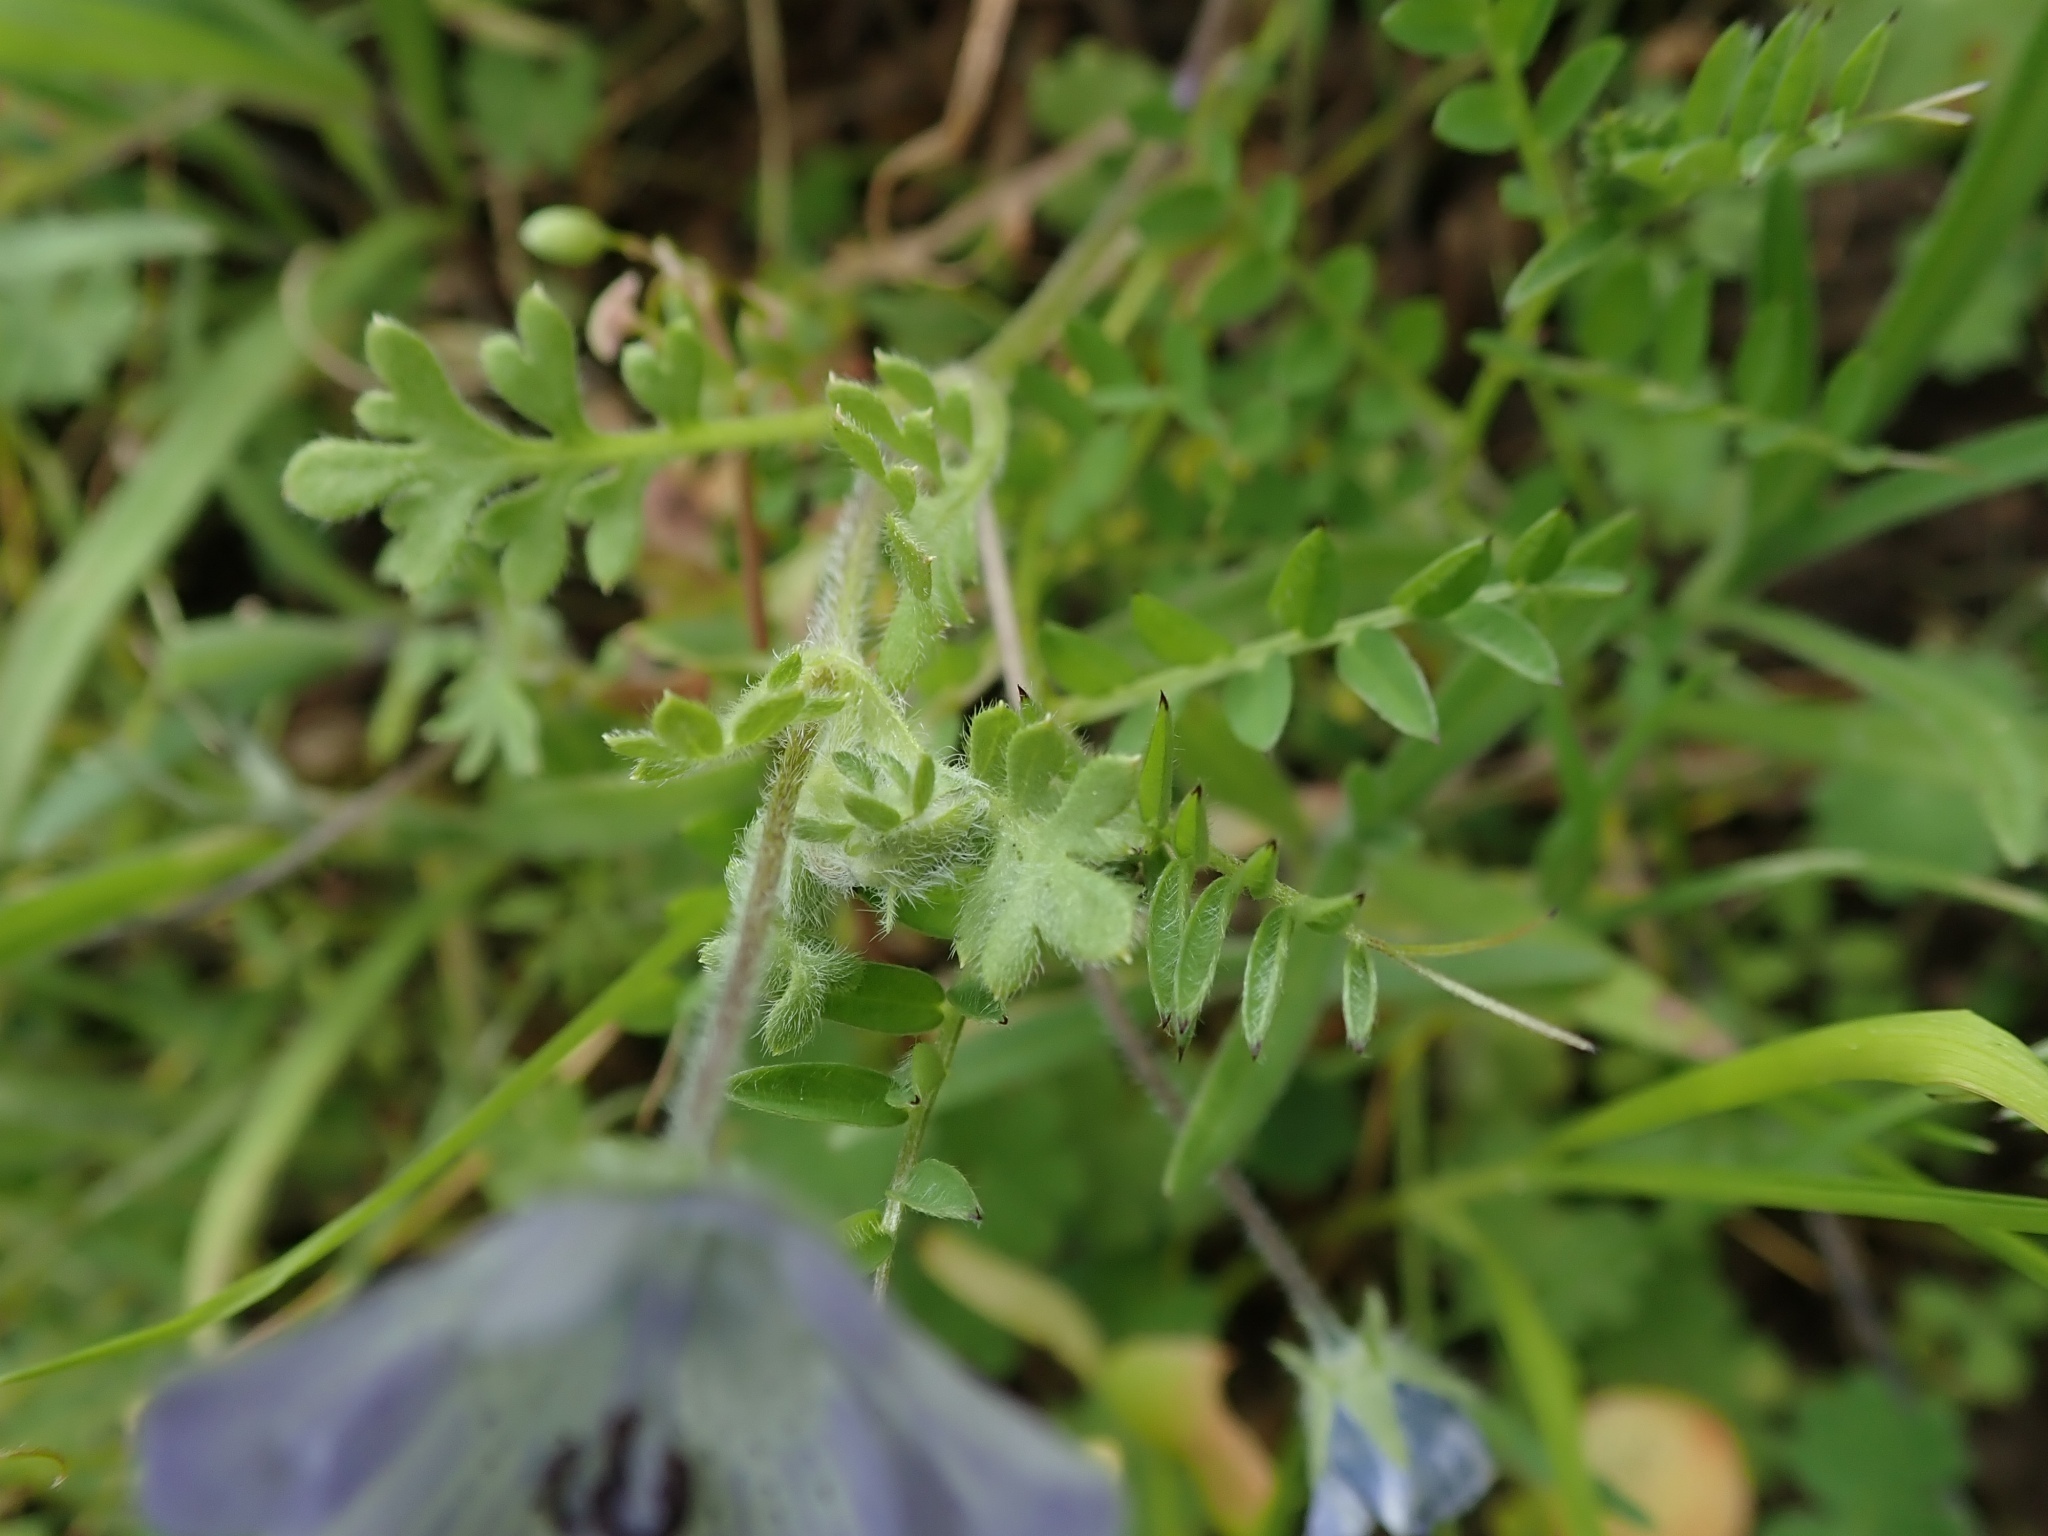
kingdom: Plantae
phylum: Tracheophyta
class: Magnoliopsida
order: Boraginales
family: Hydrophyllaceae
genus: Nemophila
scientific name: Nemophila menziesii
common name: Baby's-blue-eyes
